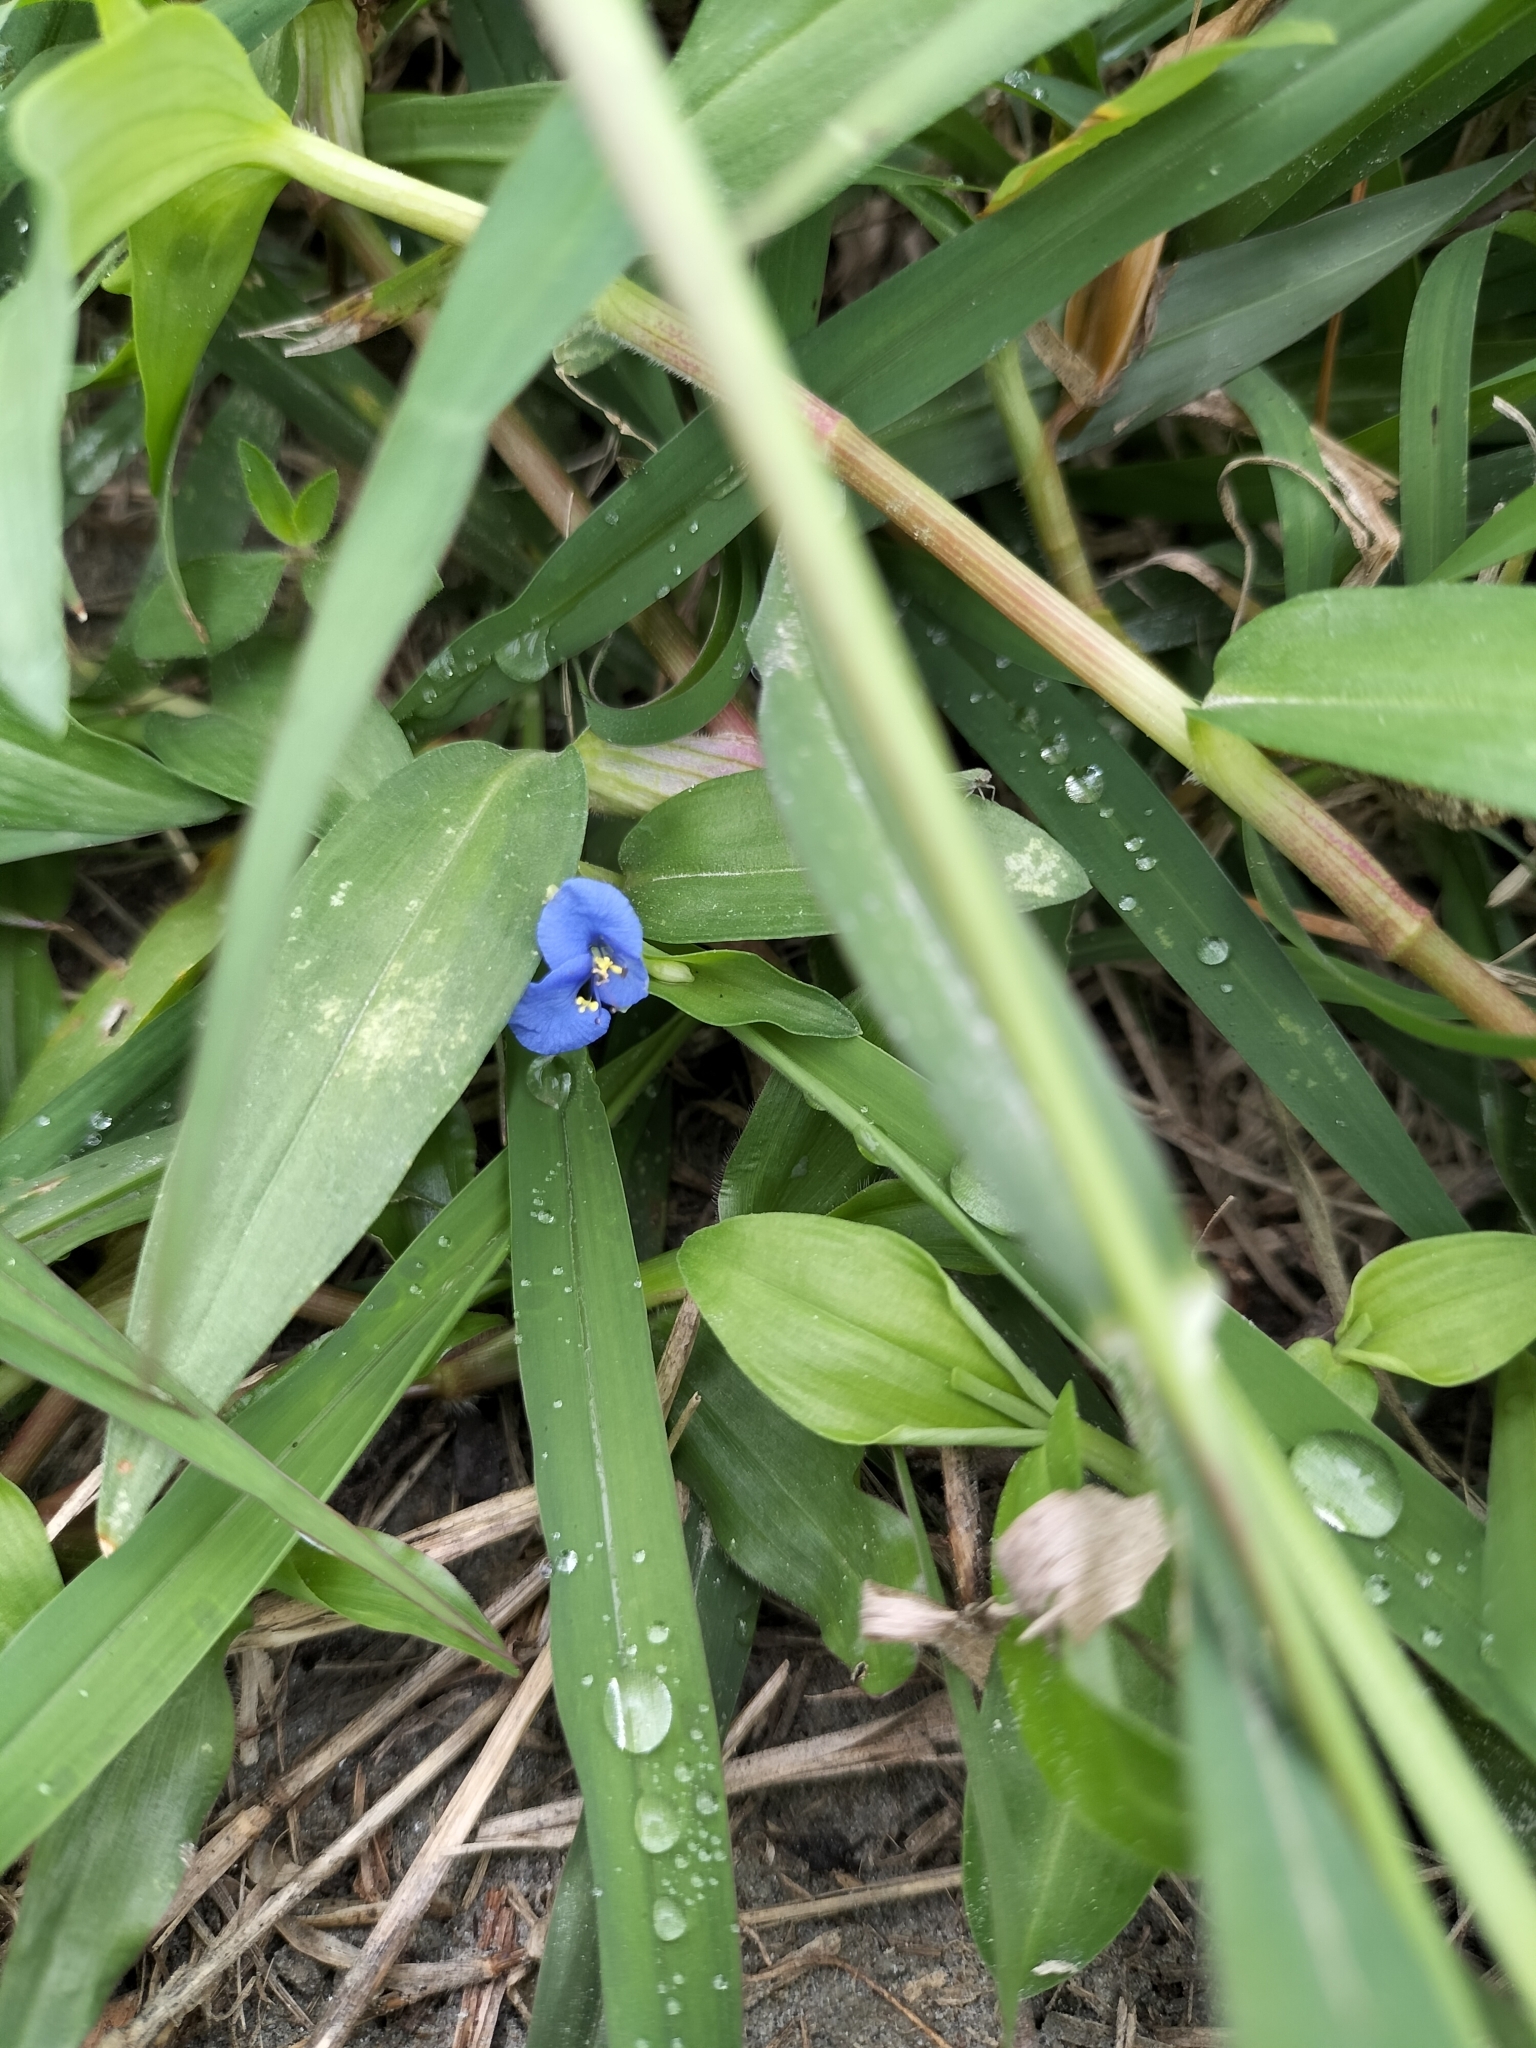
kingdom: Plantae
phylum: Tracheophyta
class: Liliopsida
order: Commelinales
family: Commelinaceae
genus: Commelina
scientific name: Commelina diffusa
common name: Climbing dayflower
